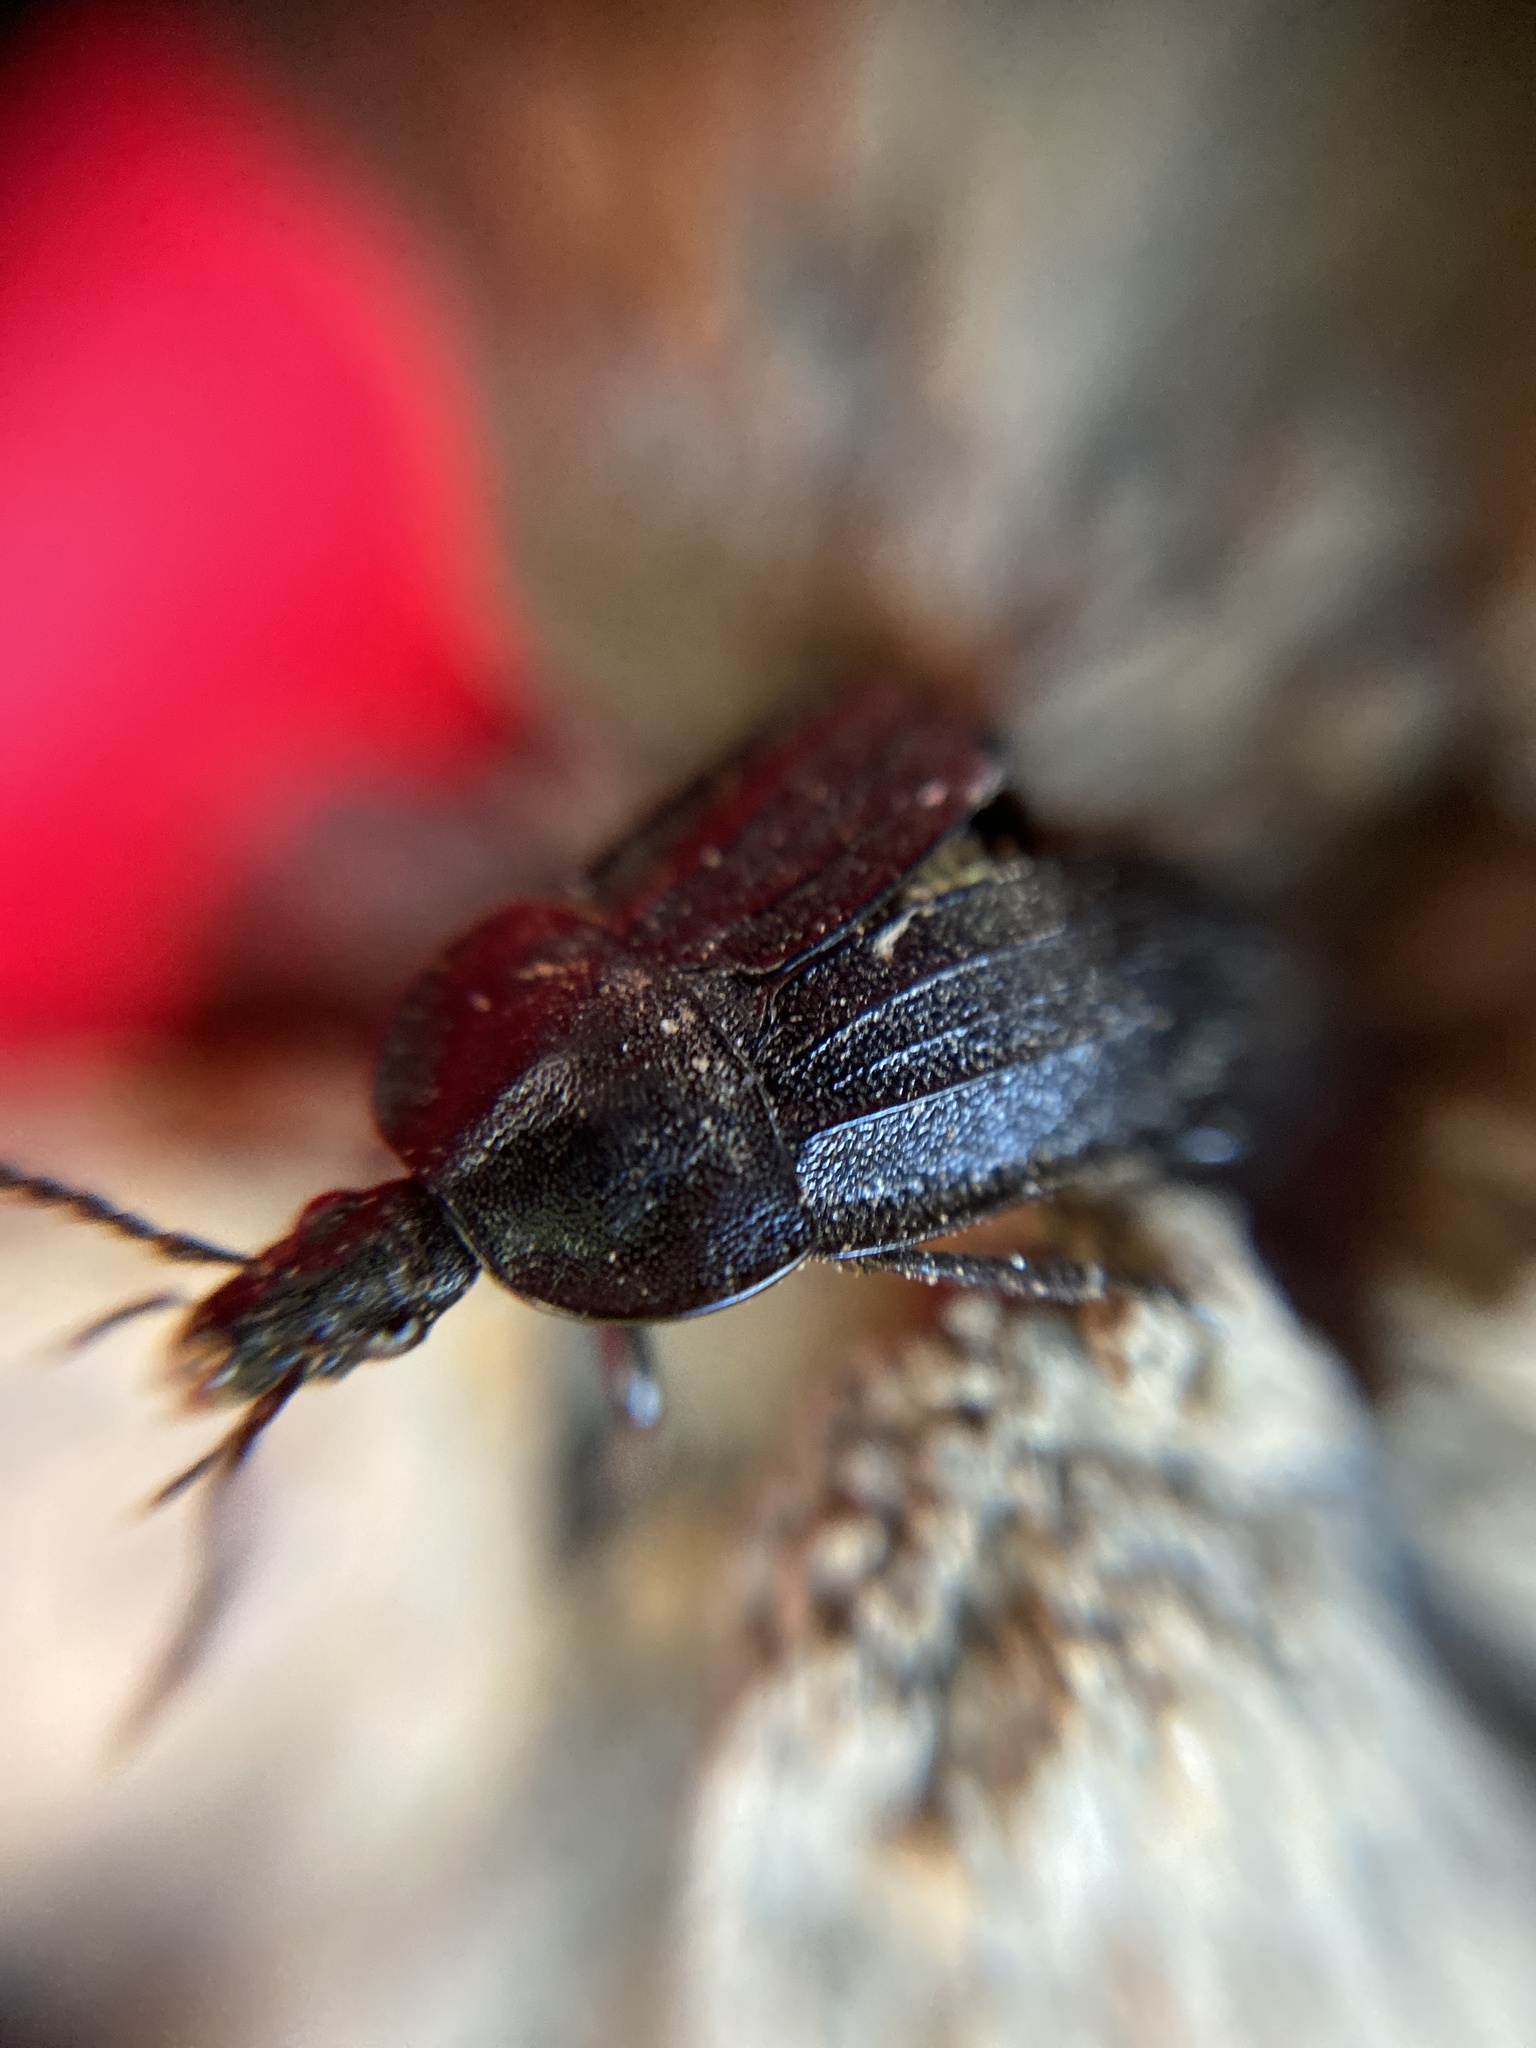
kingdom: Animalia
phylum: Arthropoda
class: Insecta
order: Coleoptera
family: Staphylinidae
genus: Silpha
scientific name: Silpha atrata
